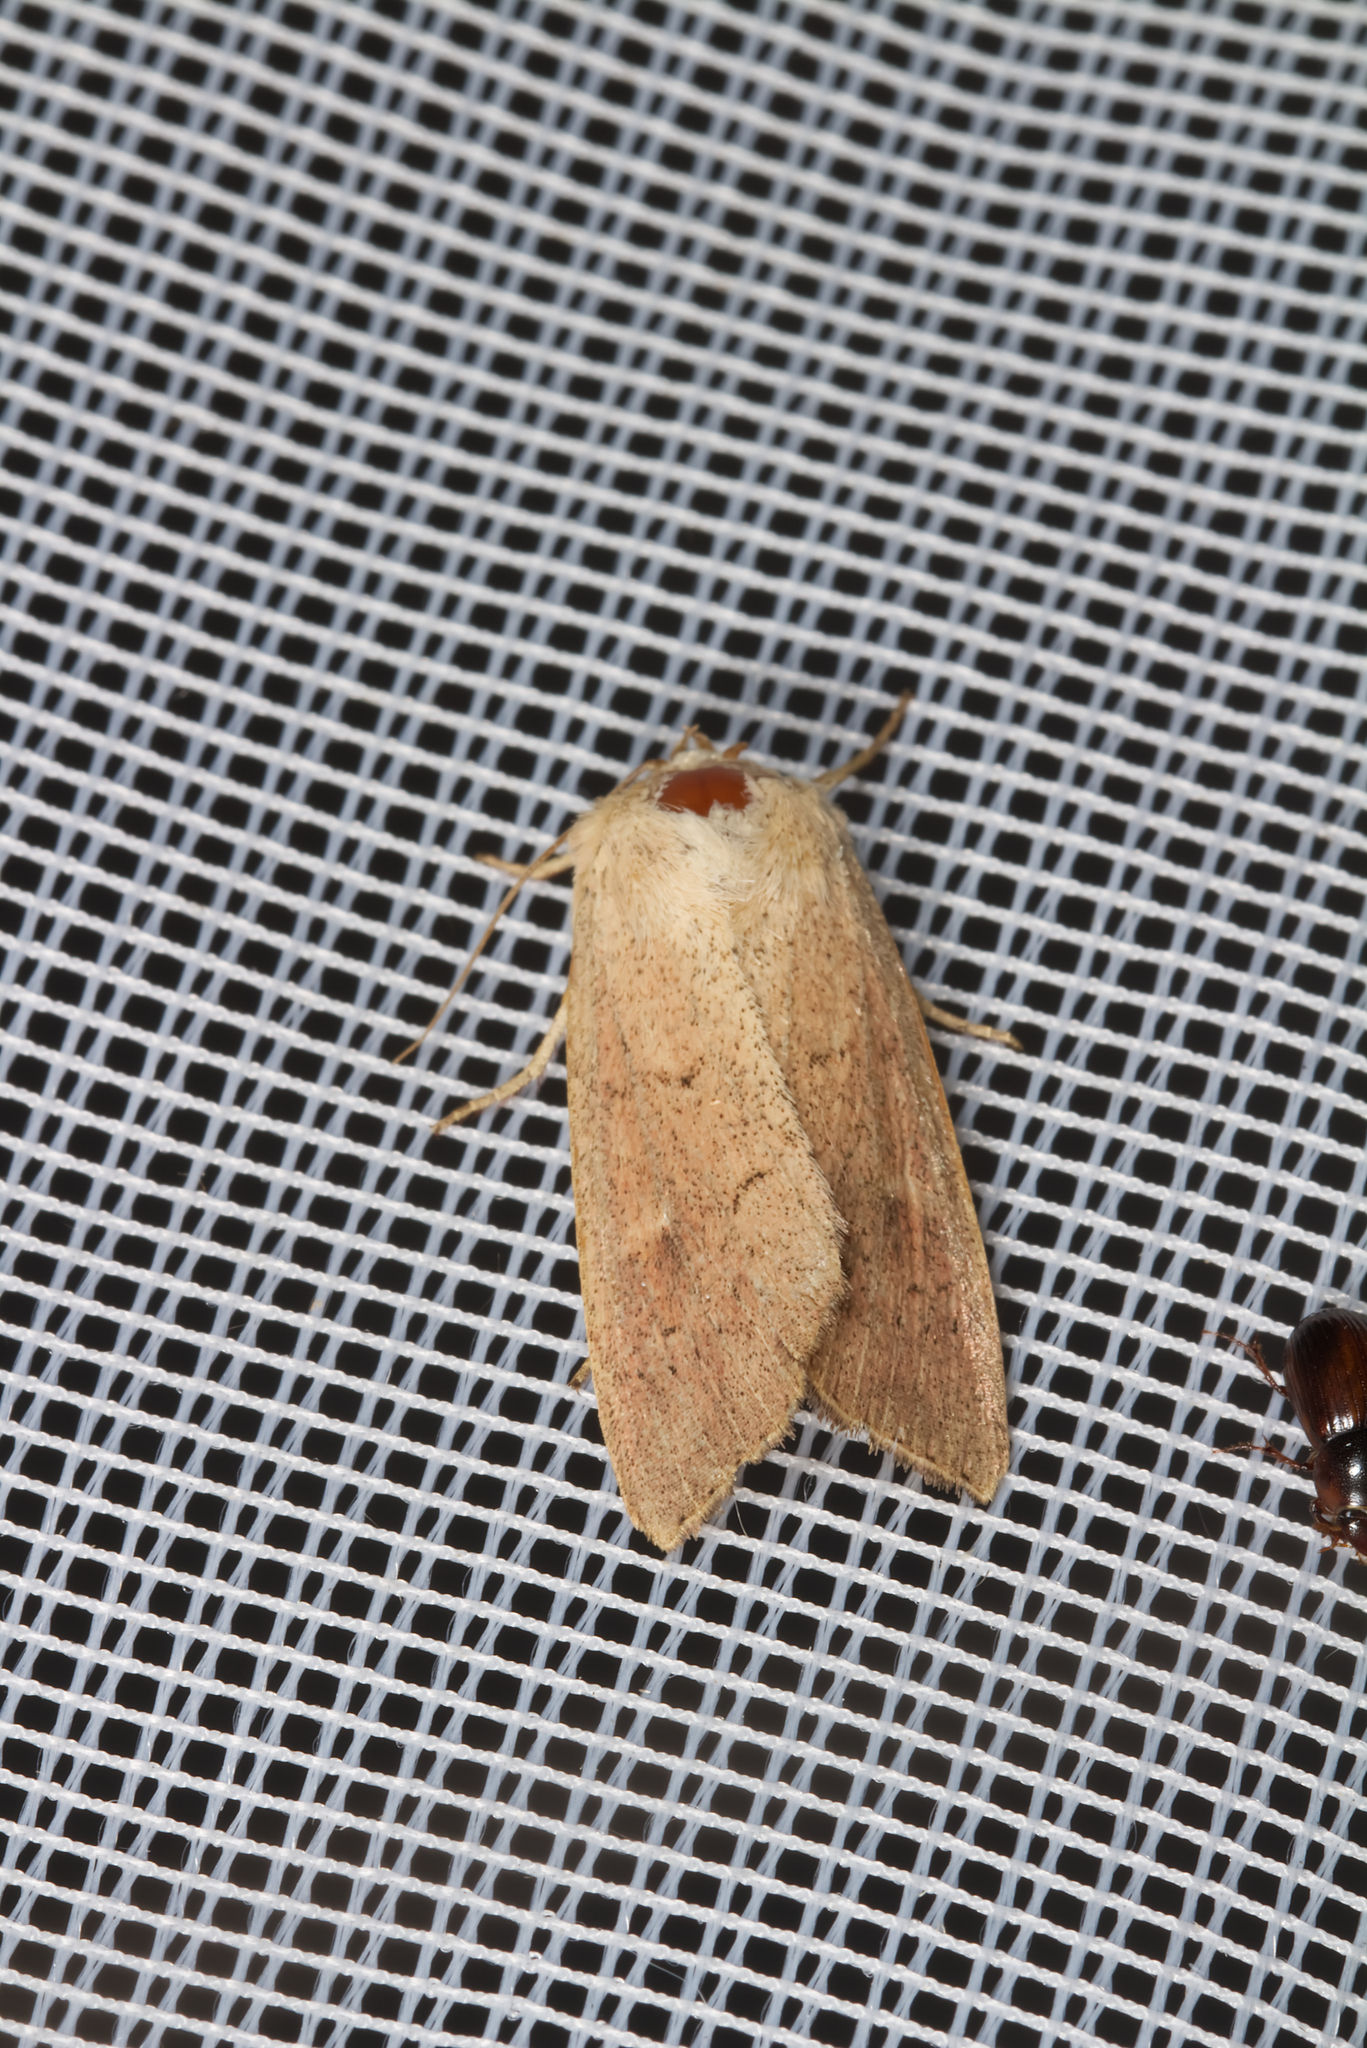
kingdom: Animalia
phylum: Arthropoda
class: Insecta
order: Lepidoptera
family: Noctuidae
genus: Mythimna
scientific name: Mythimna ferrago
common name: Clay
